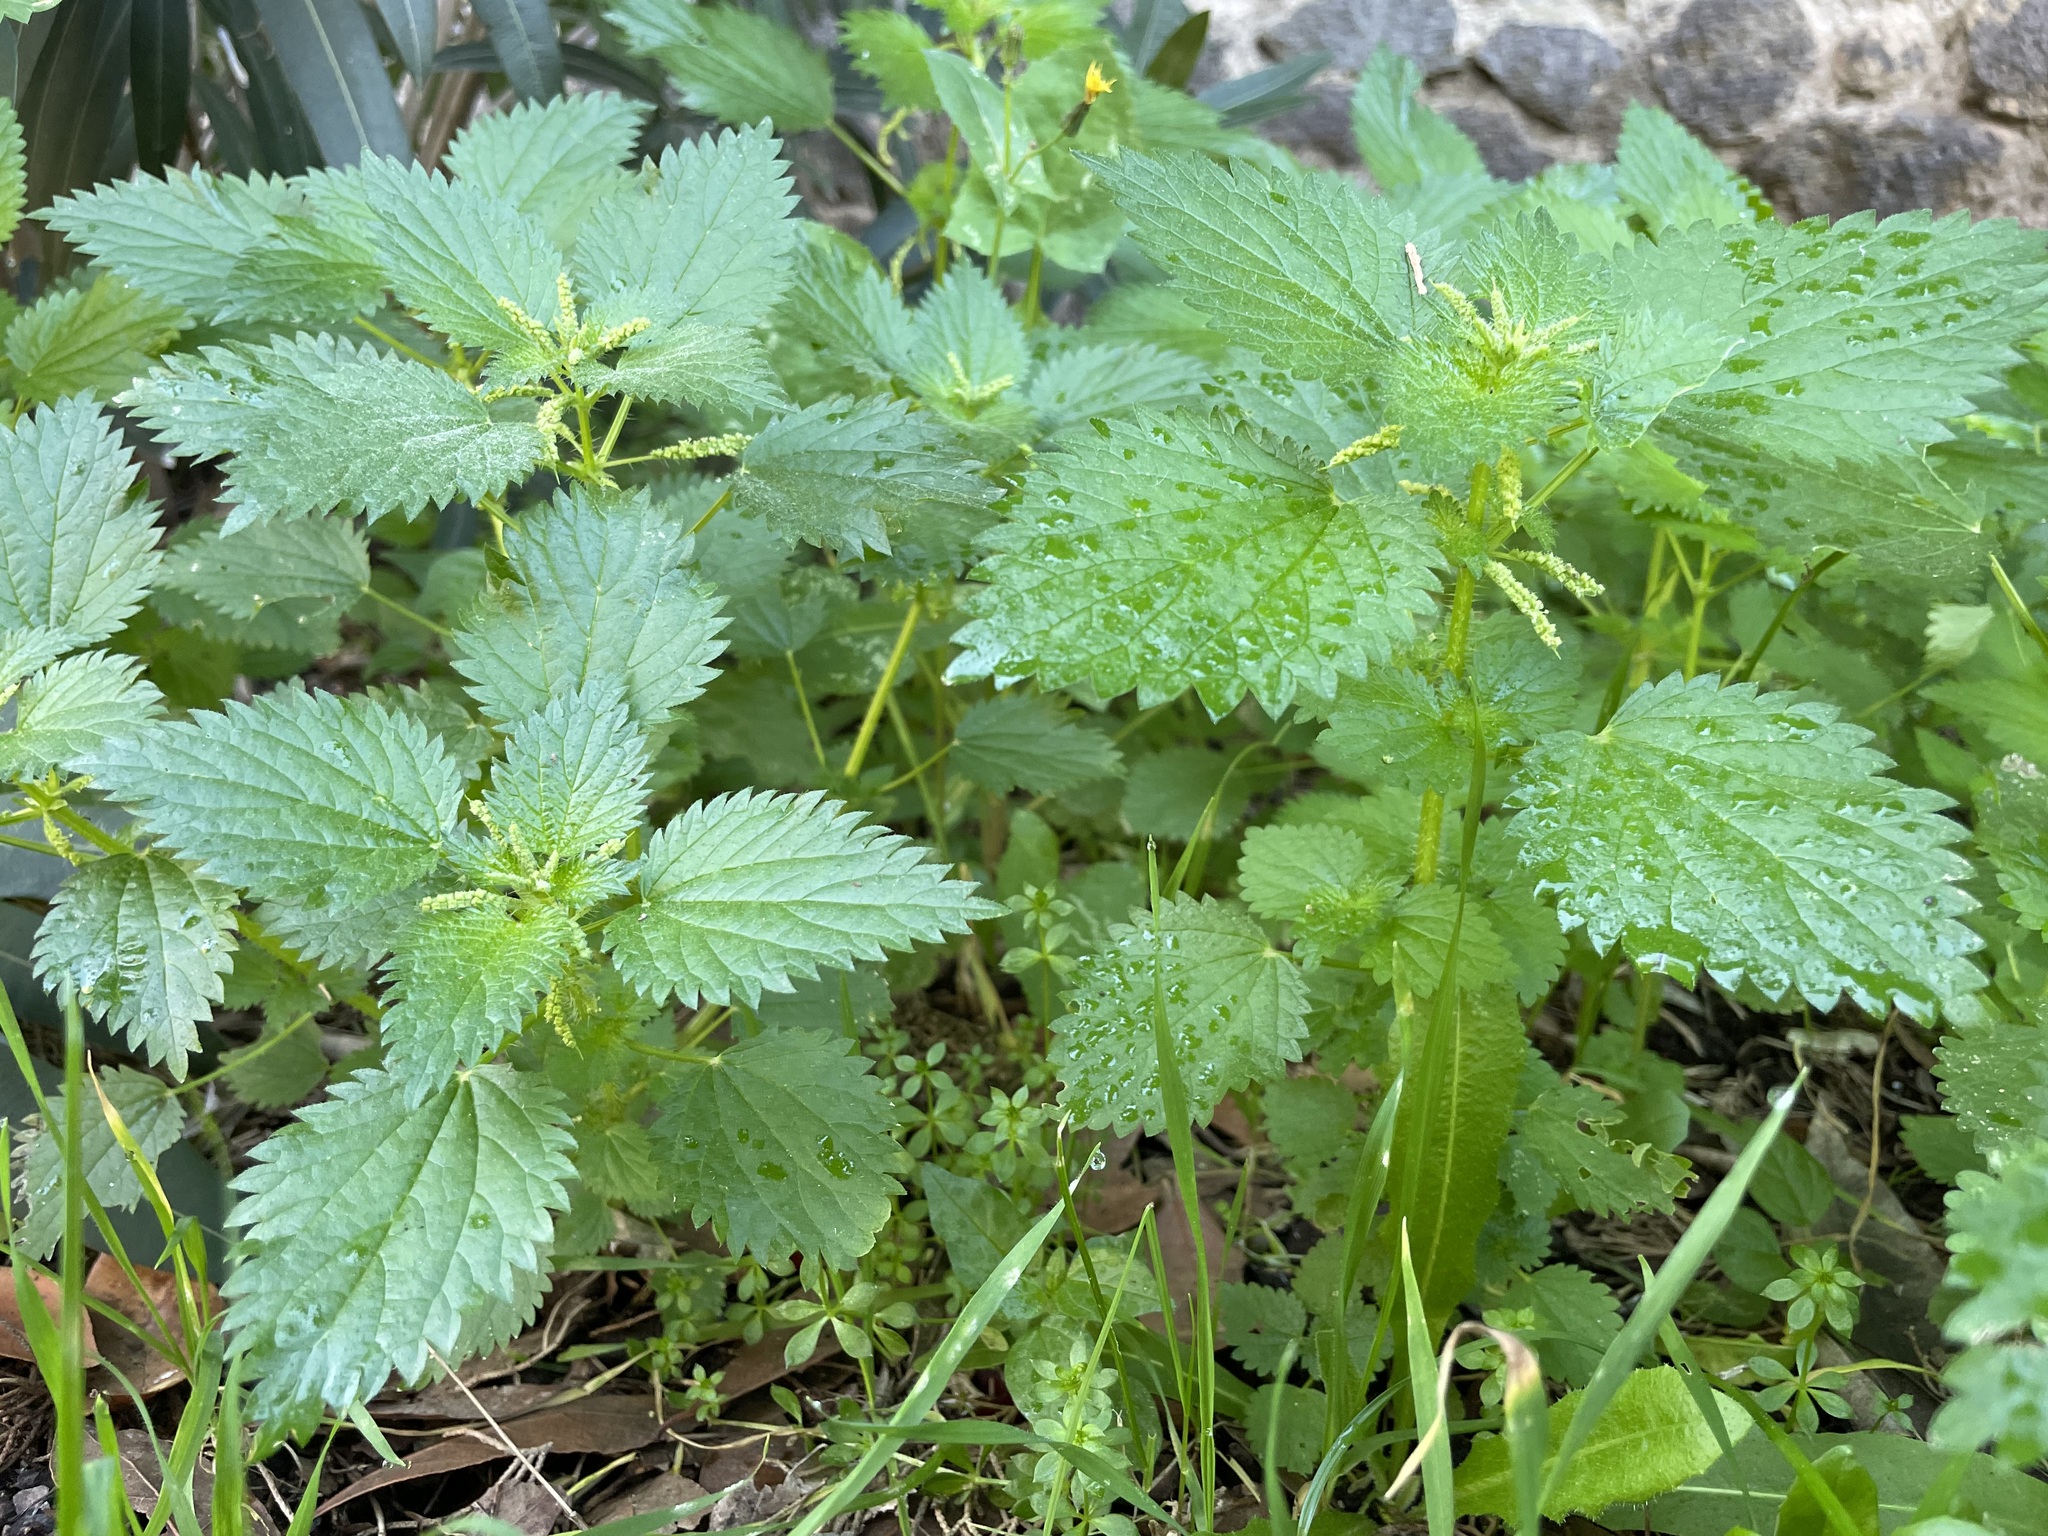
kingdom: Plantae
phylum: Tracheophyta
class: Magnoliopsida
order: Rosales
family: Urticaceae
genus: Urtica
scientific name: Urtica membranacea
